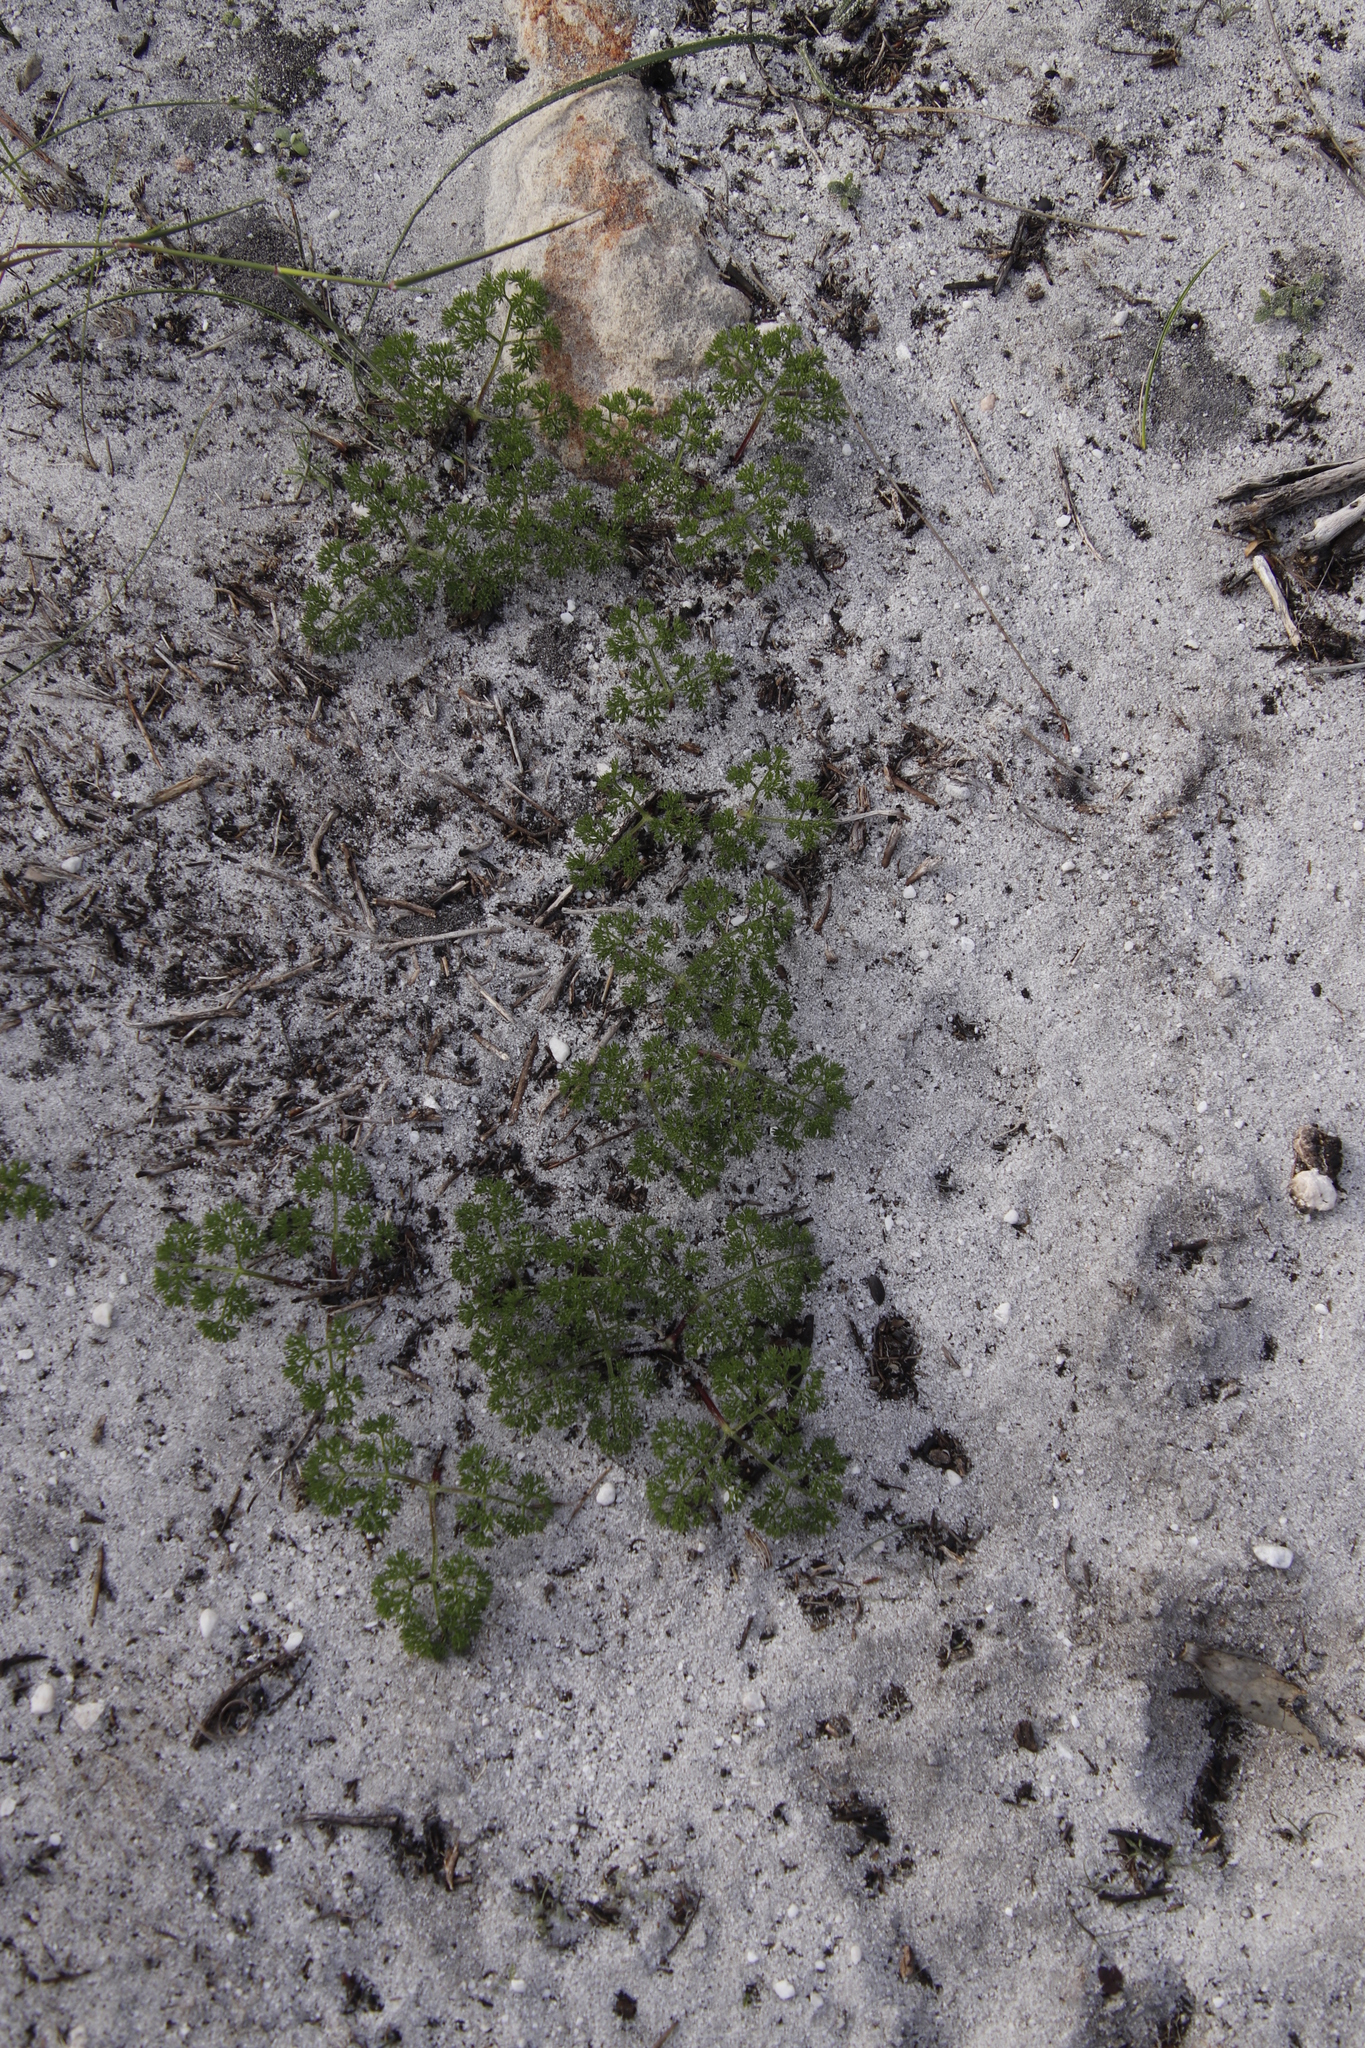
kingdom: Plantae
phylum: Tracheophyta
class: Magnoliopsida
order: Apiales
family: Apiaceae
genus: Annesorhiza
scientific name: Annesorhiza macrocarpa
